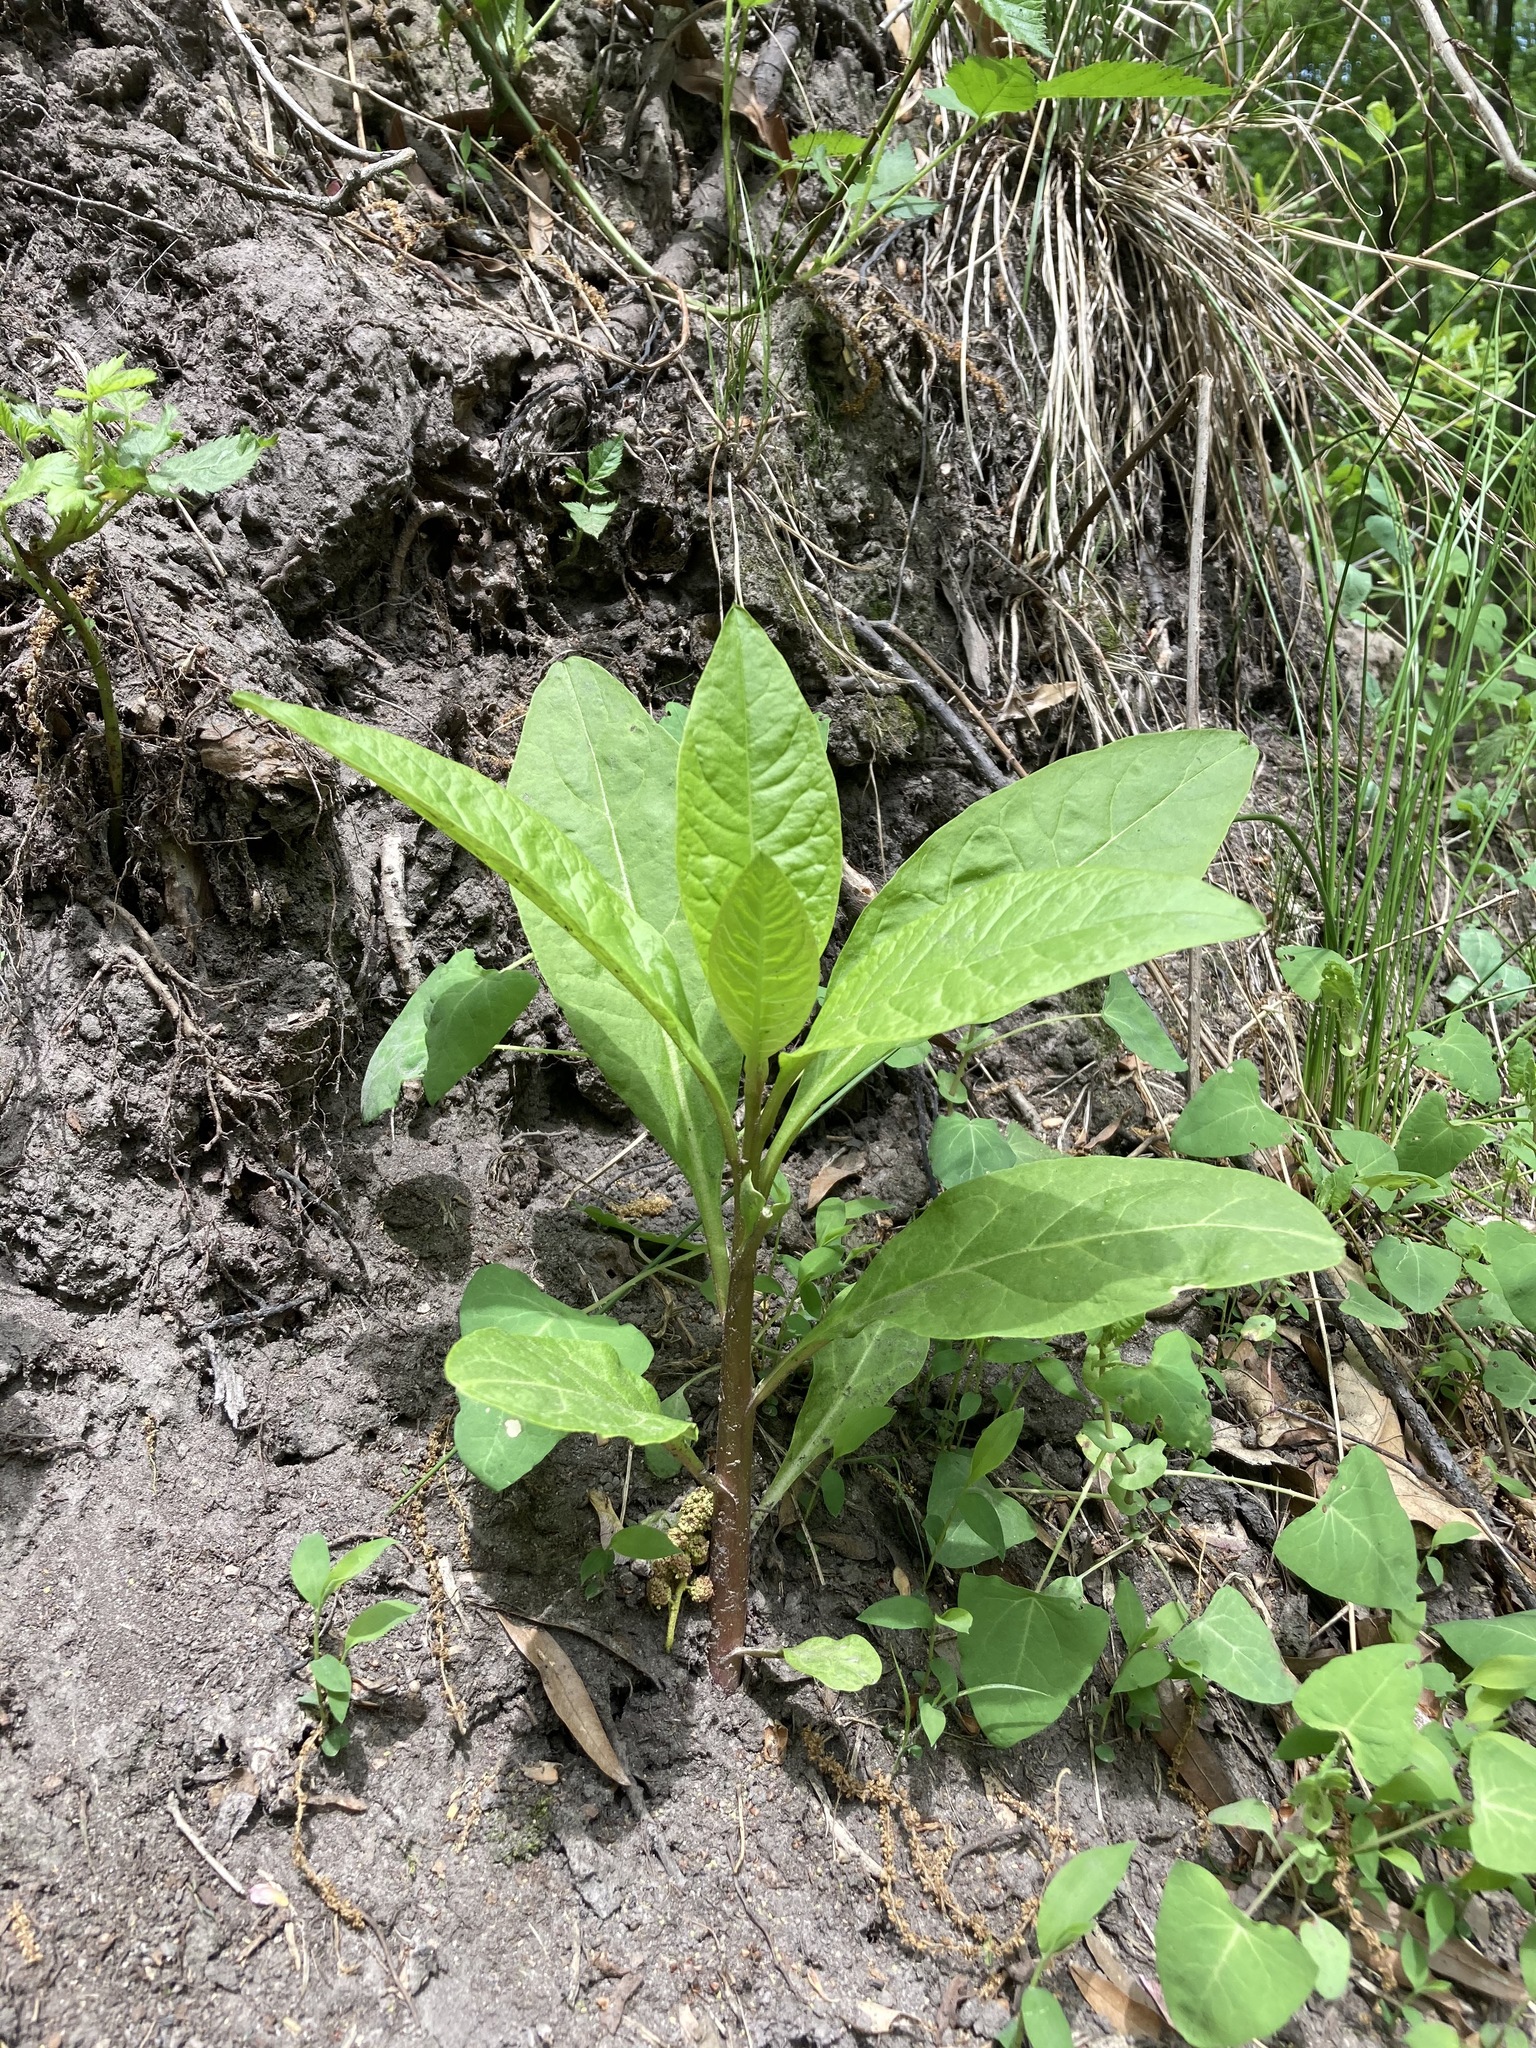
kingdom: Plantae
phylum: Tracheophyta
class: Magnoliopsida
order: Caryophyllales
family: Phytolaccaceae
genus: Phytolacca
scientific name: Phytolacca americana
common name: American pokeweed
